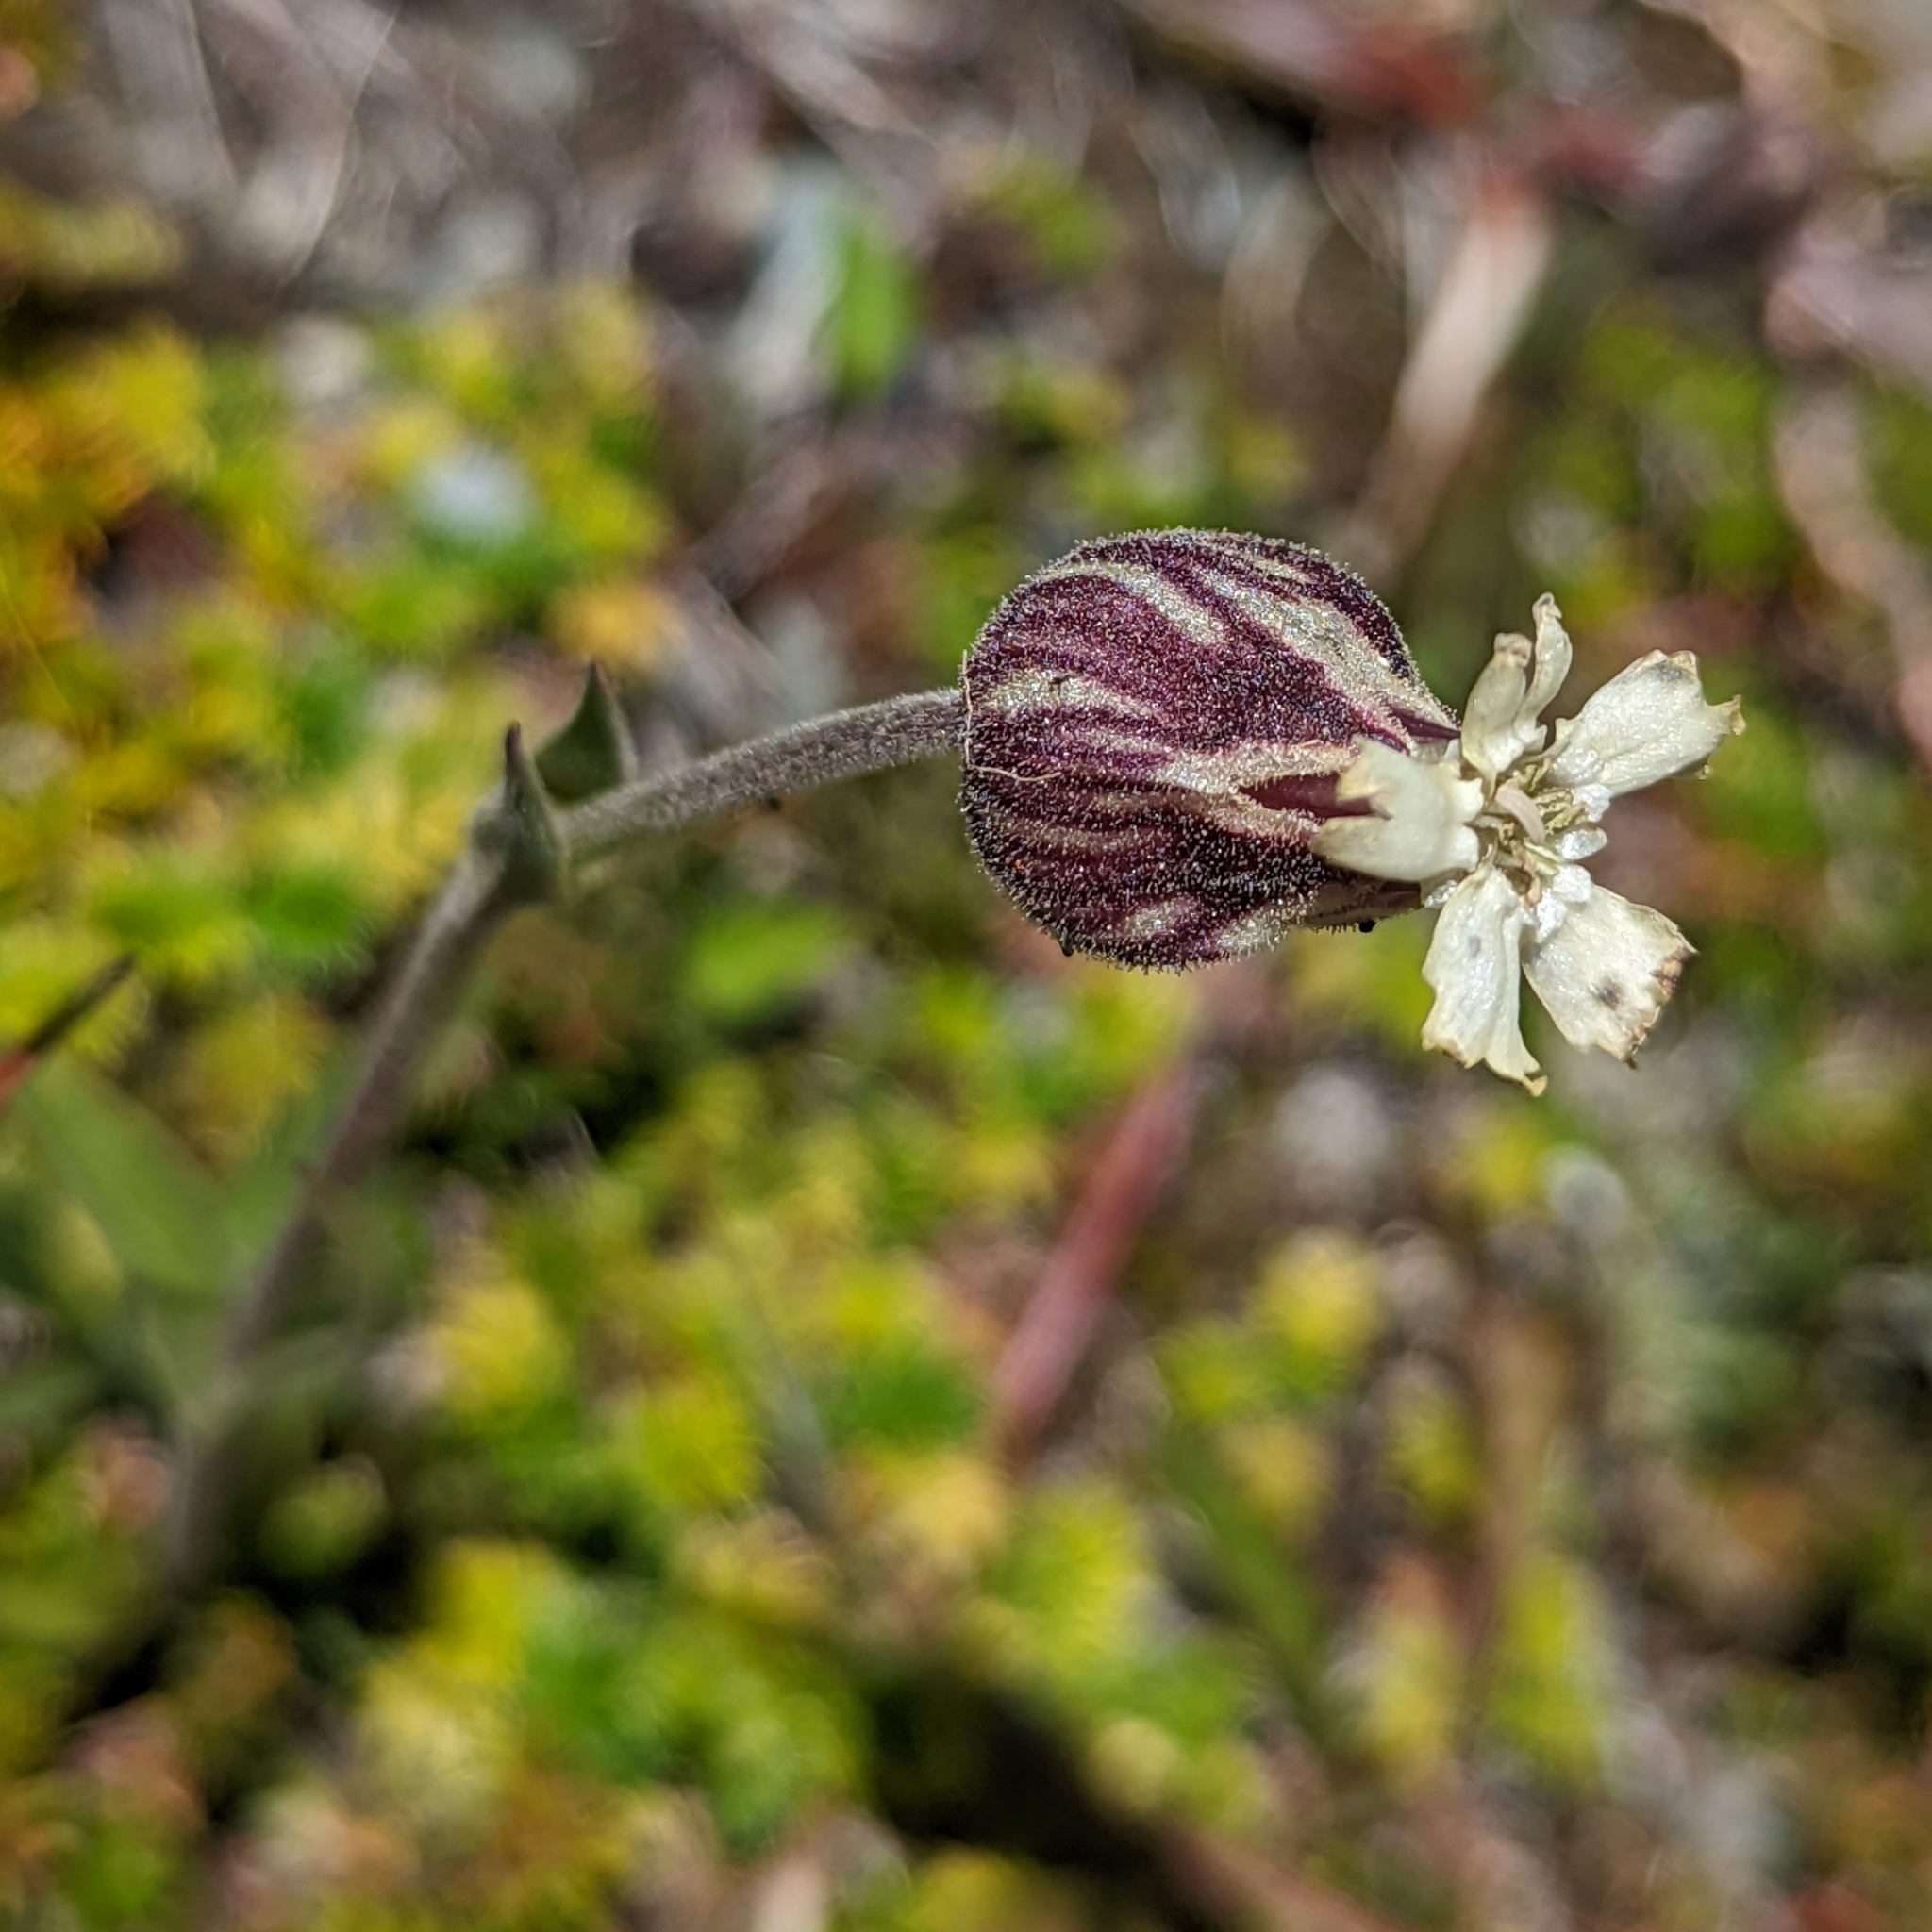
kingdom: Plantae
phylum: Tracheophyta
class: Magnoliopsida
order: Caryophyllales
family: Caryophyllaceae
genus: Silene
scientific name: Silene magellanica
